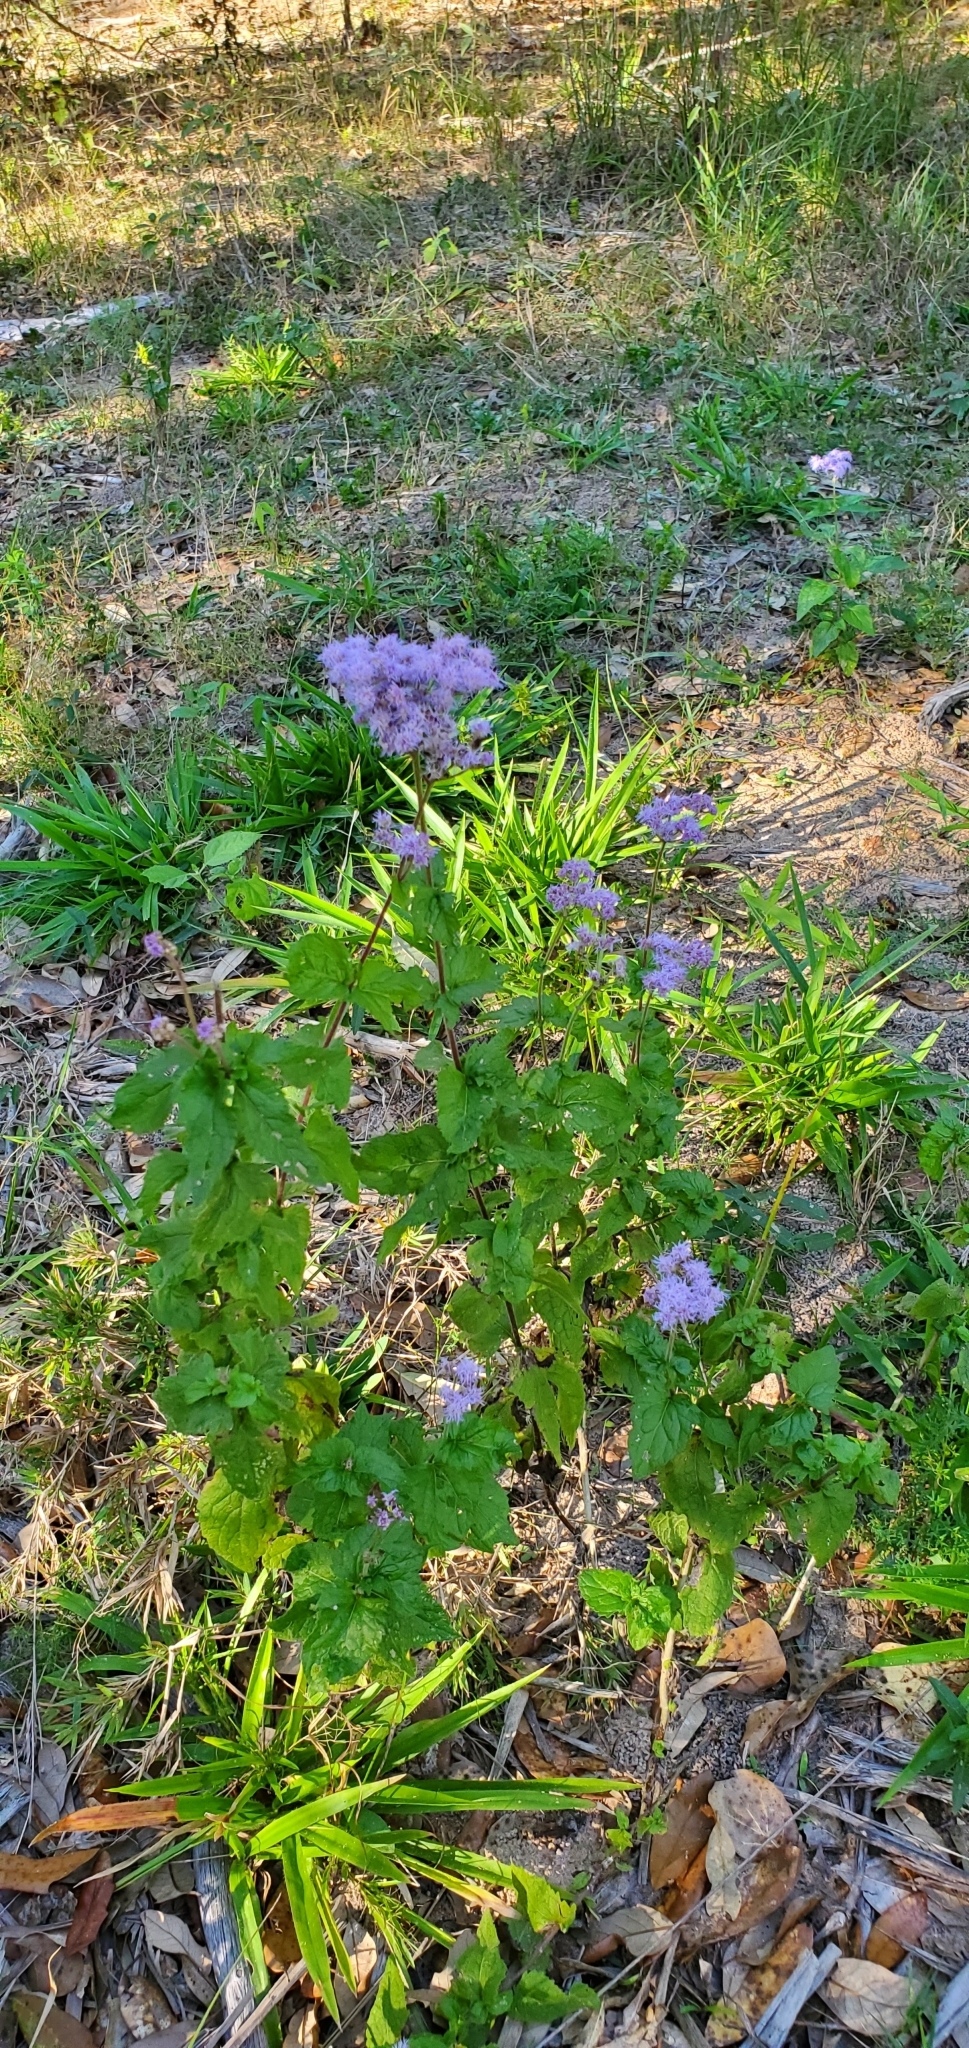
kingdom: Plantae
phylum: Tracheophyta
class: Magnoliopsida
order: Asterales
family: Asteraceae
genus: Conoclinium
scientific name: Conoclinium coelestinum
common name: Blue mistflower
